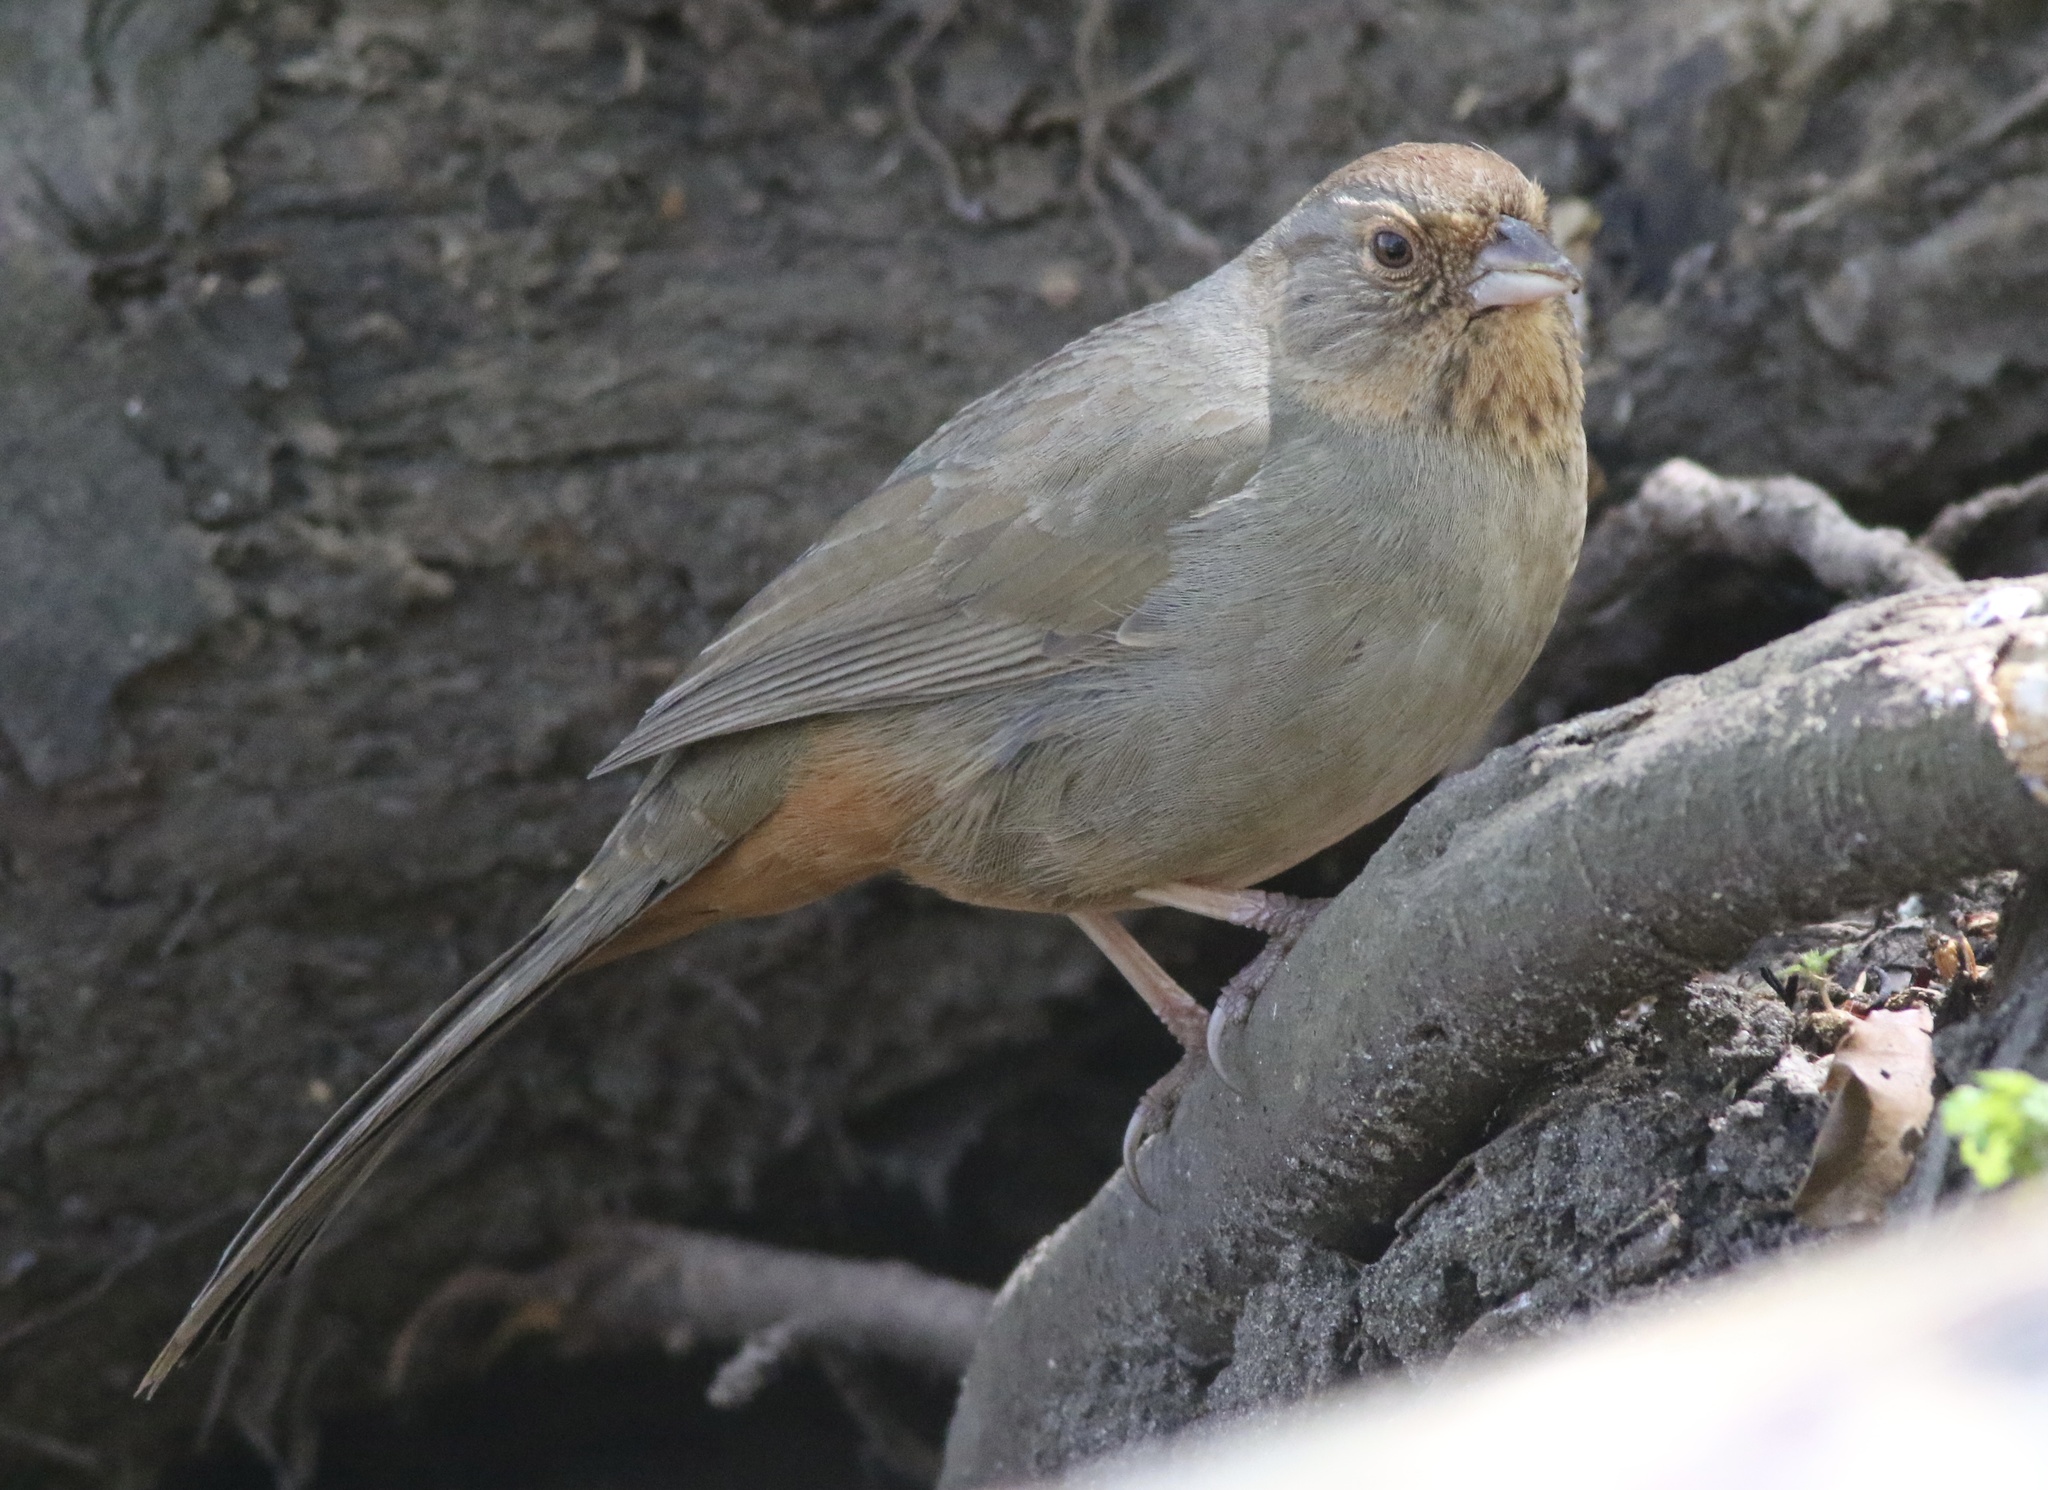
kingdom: Animalia
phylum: Chordata
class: Aves
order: Passeriformes
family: Passerellidae
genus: Melozone
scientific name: Melozone crissalis
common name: California towhee
